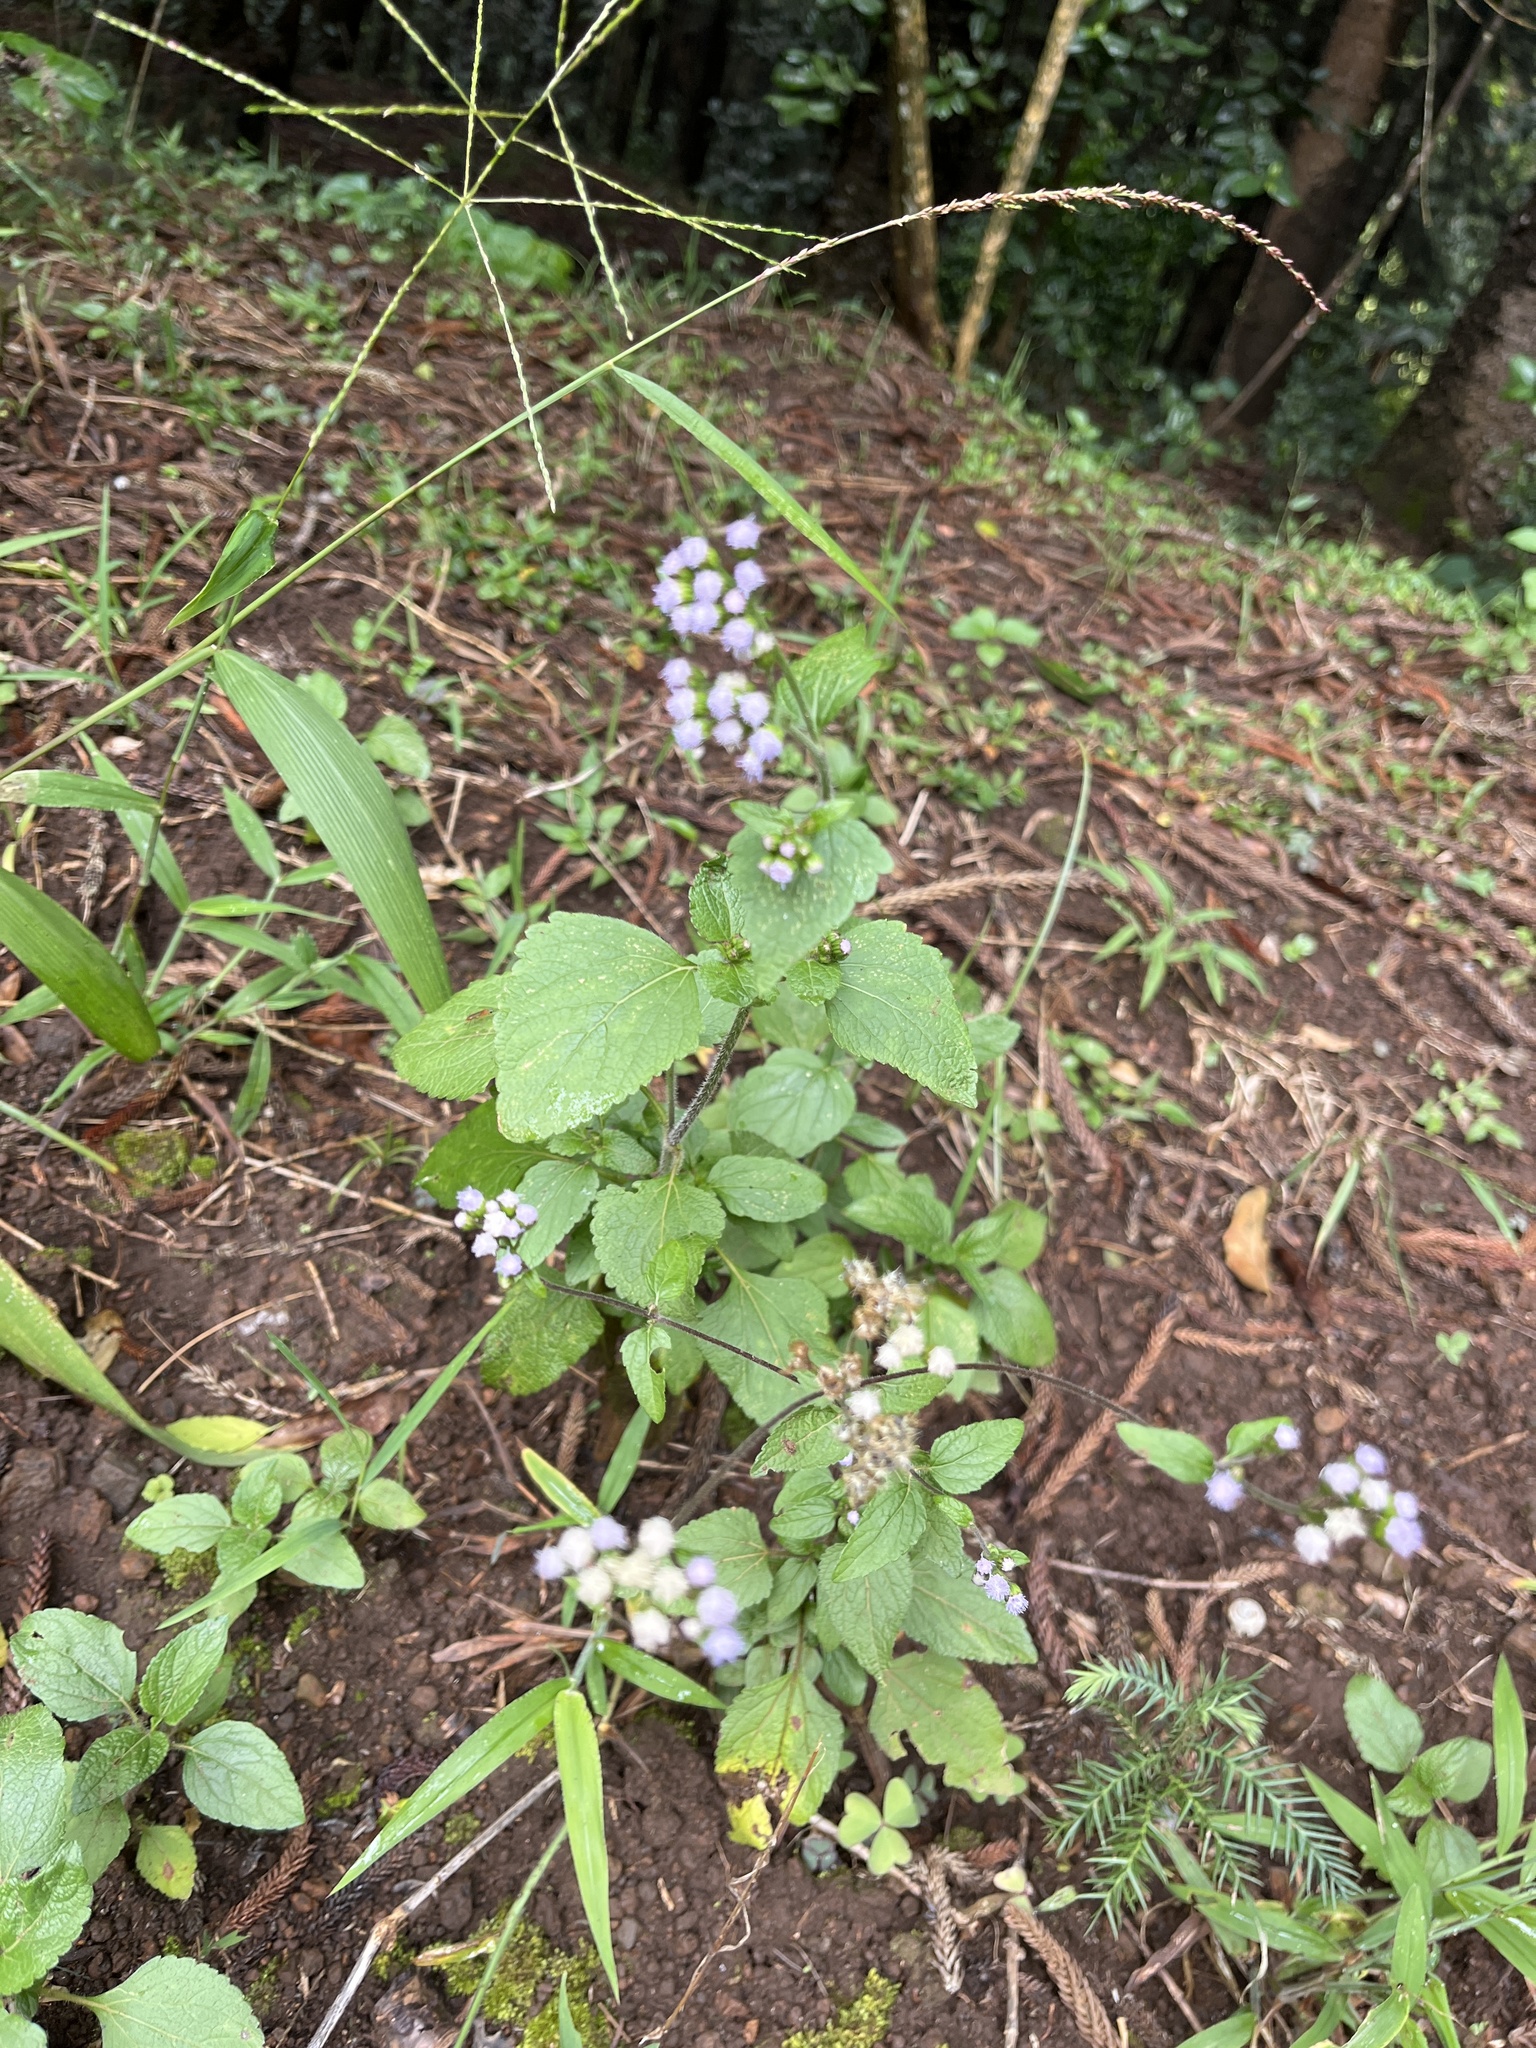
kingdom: Plantae
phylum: Tracheophyta
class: Magnoliopsida
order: Asterales
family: Asteraceae
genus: Ageratum
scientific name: Ageratum conyzoides
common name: Tropical whiteweed
